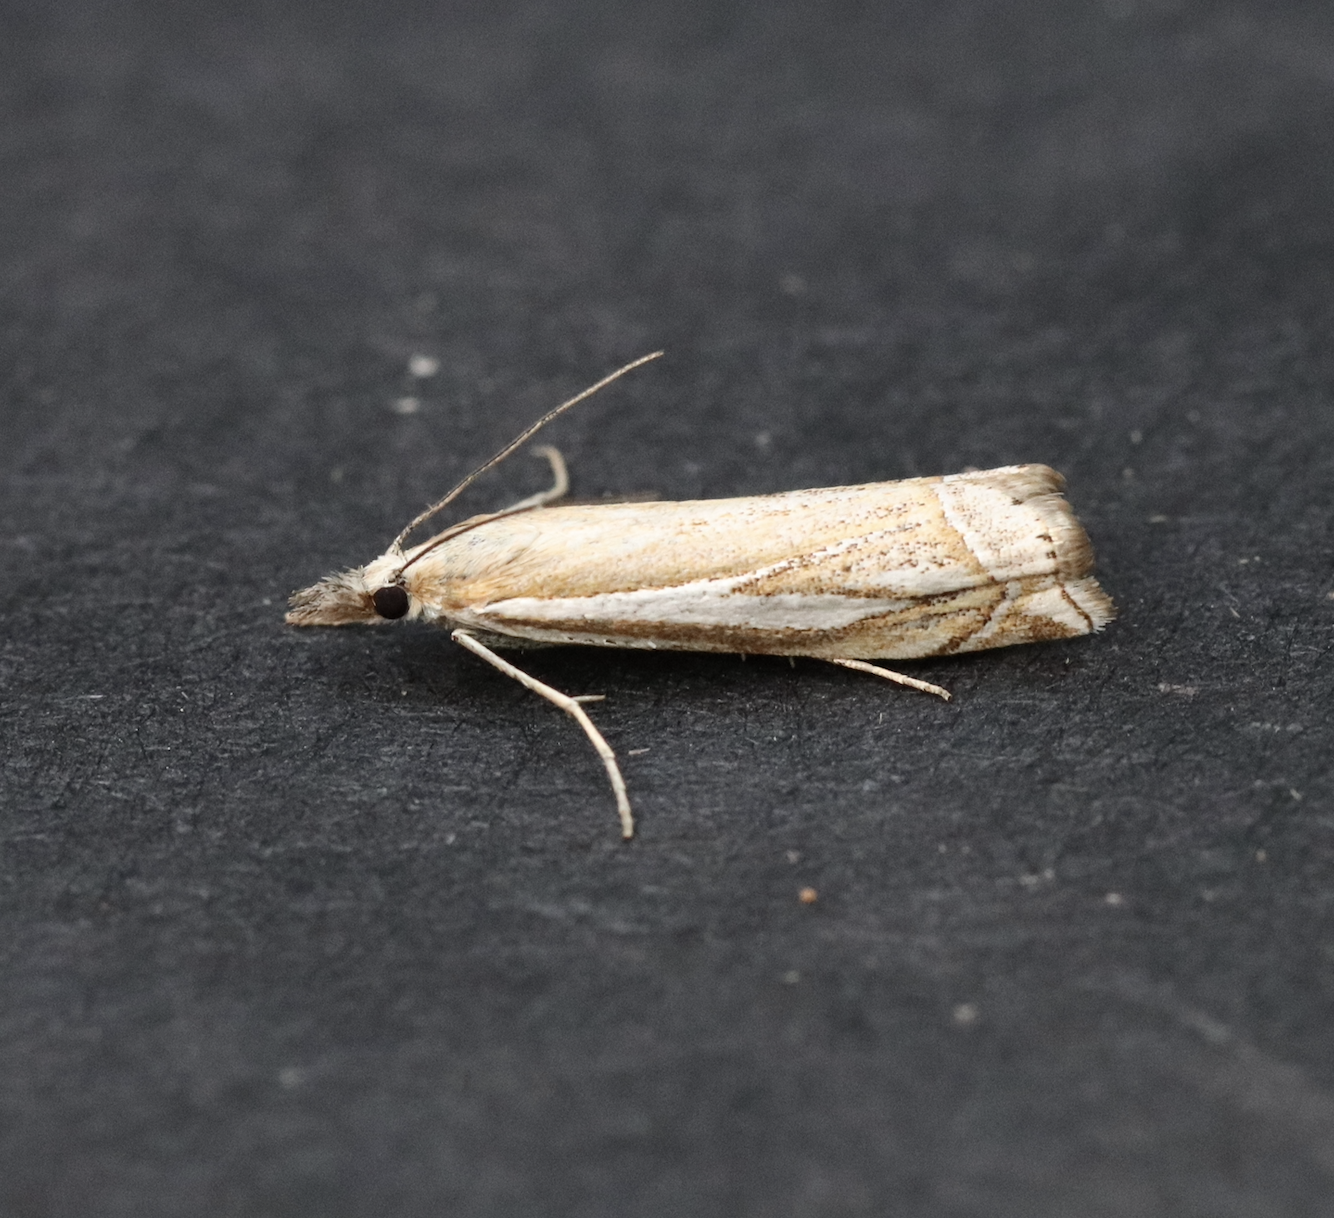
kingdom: Animalia
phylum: Arthropoda
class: Insecta
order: Lepidoptera
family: Crambidae
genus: Crambus
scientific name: Crambus whitmerellus
